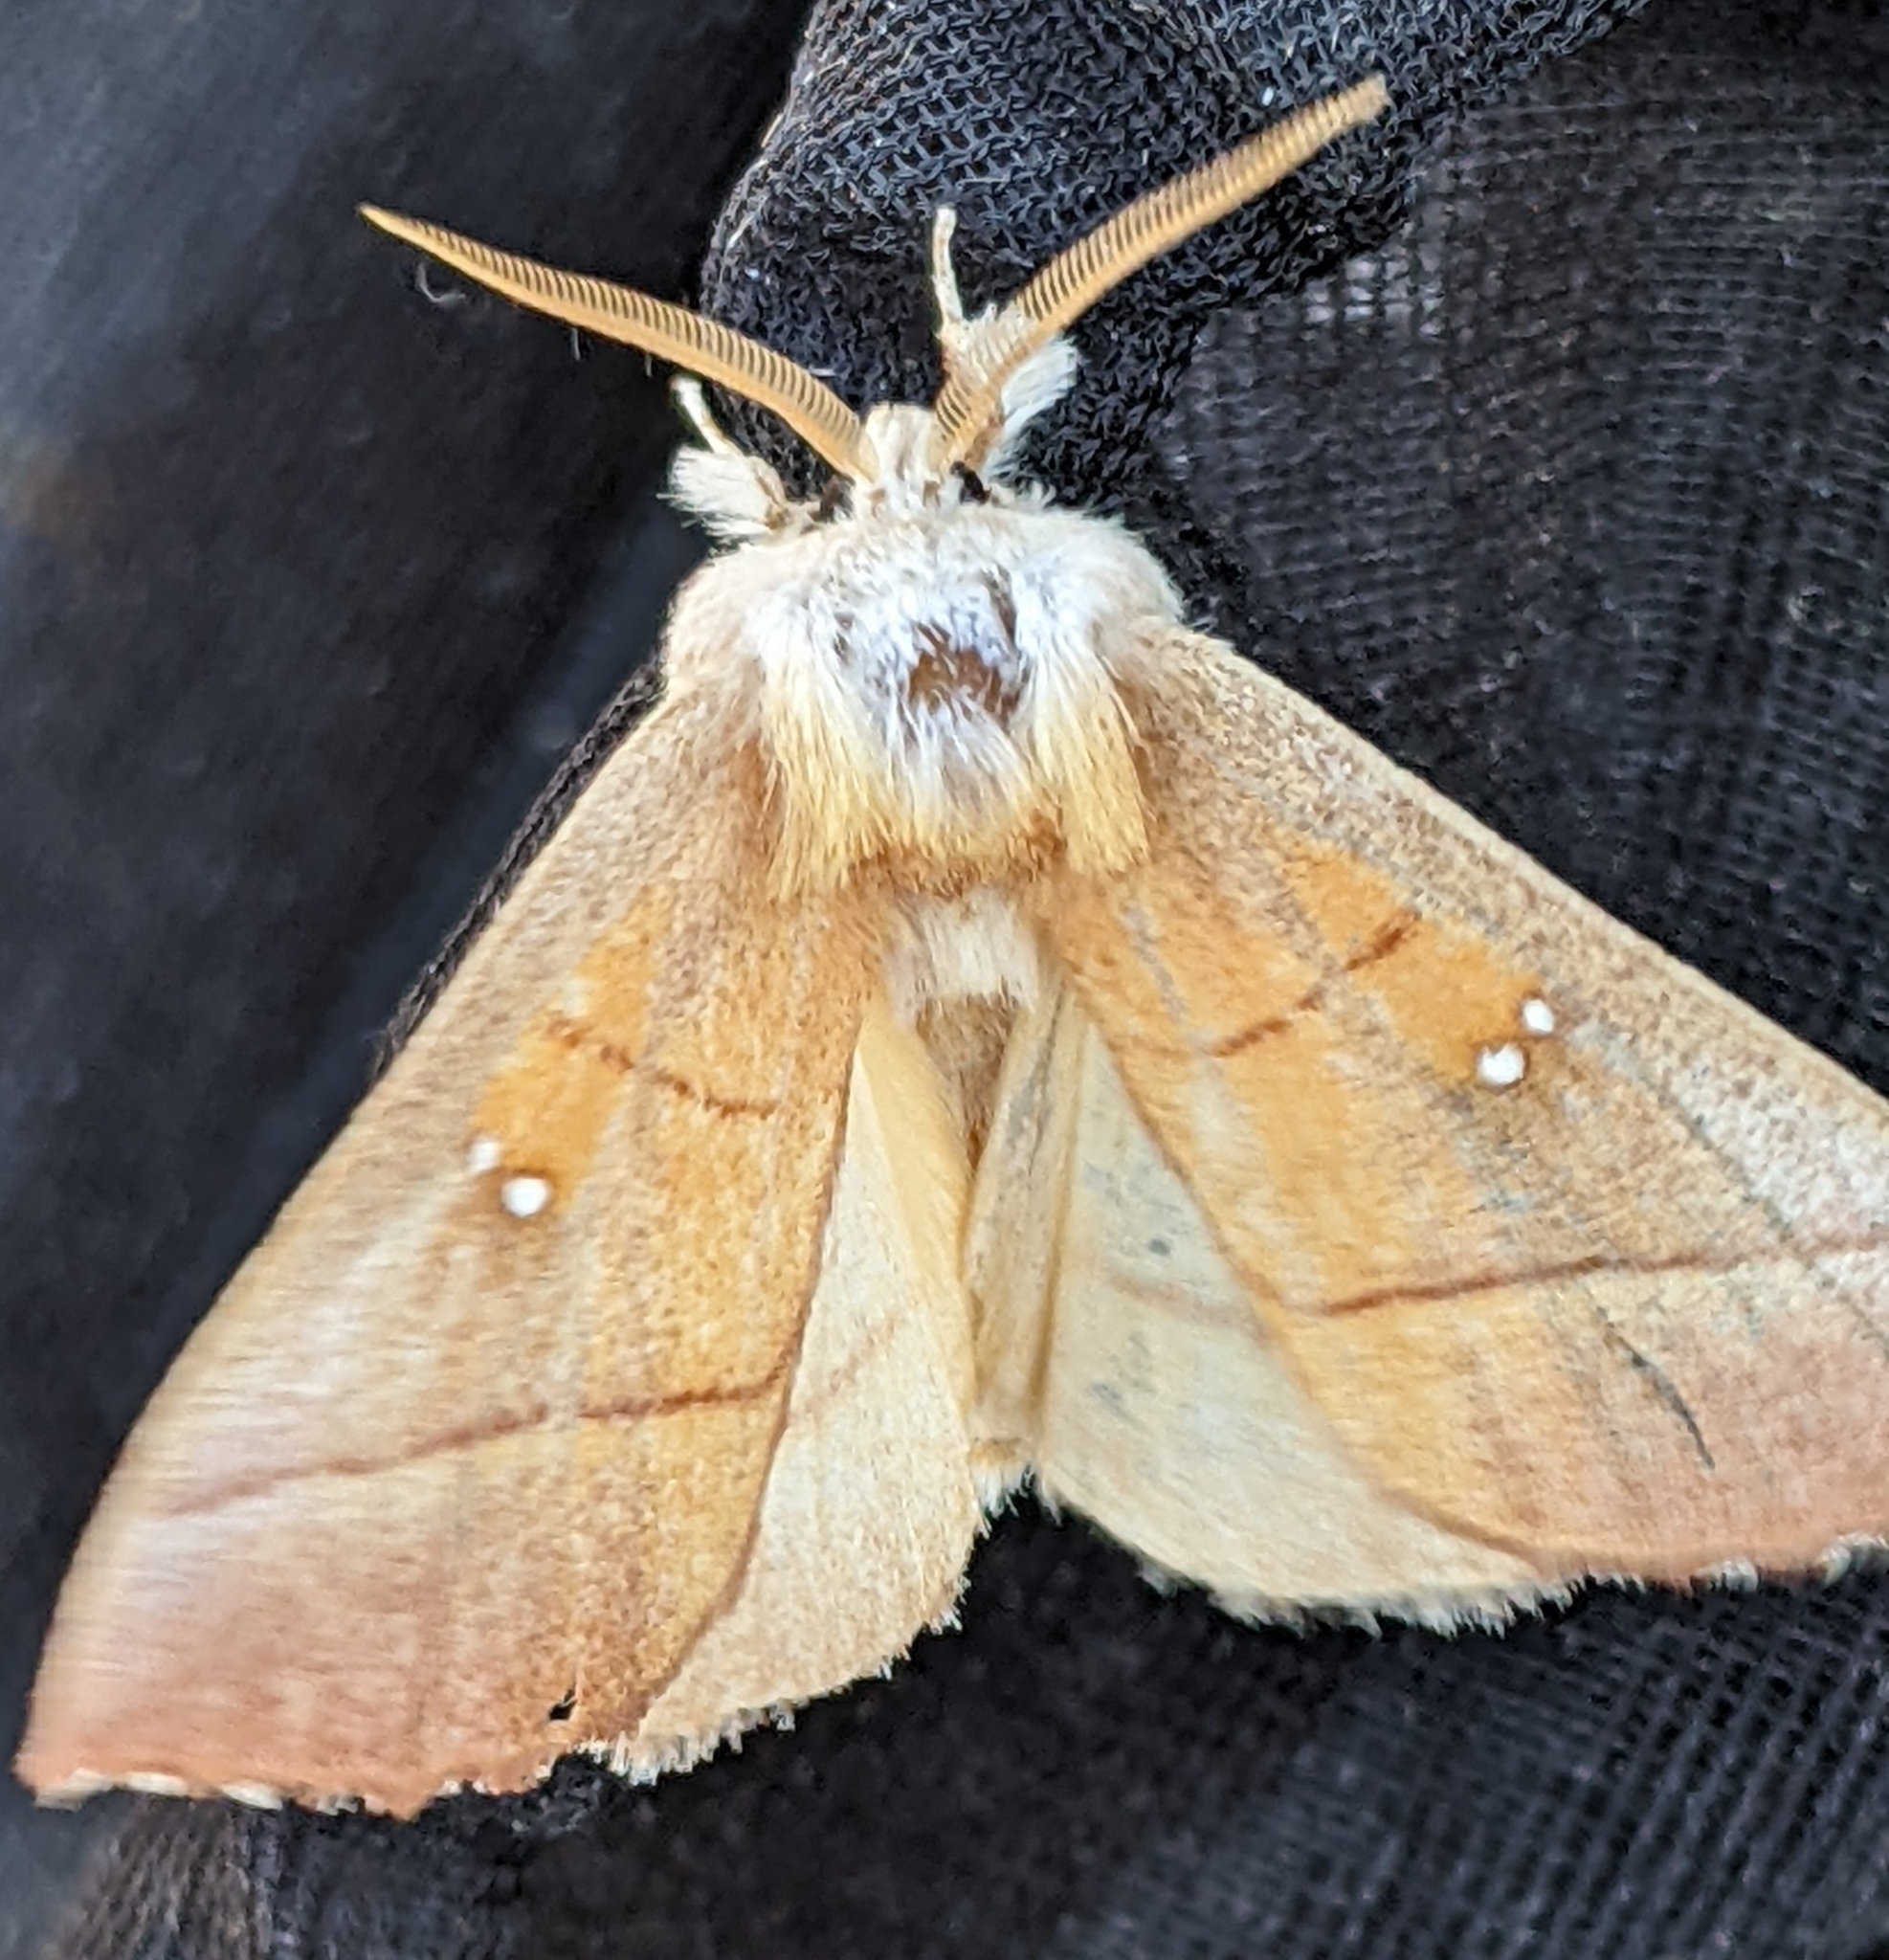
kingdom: Animalia
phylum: Arthropoda
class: Insecta
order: Lepidoptera
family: Notodontidae
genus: Nadata
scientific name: Nadata gibbosa
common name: White-dotted prominent
